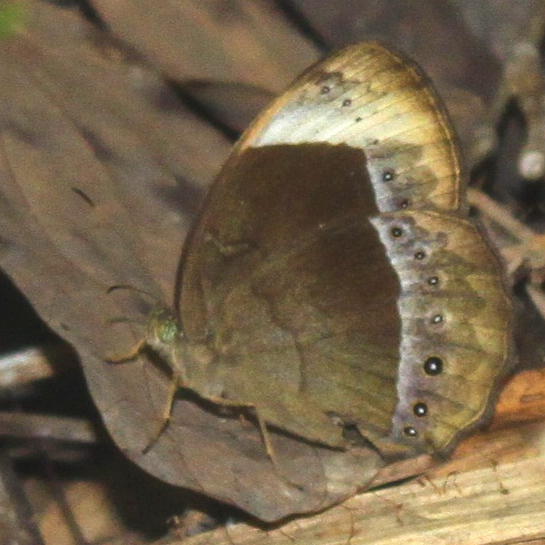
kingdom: Animalia
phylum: Arthropoda
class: Insecta
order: Lepidoptera
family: Nymphalidae
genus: Mycalesis
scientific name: Mycalesis anaxioides
